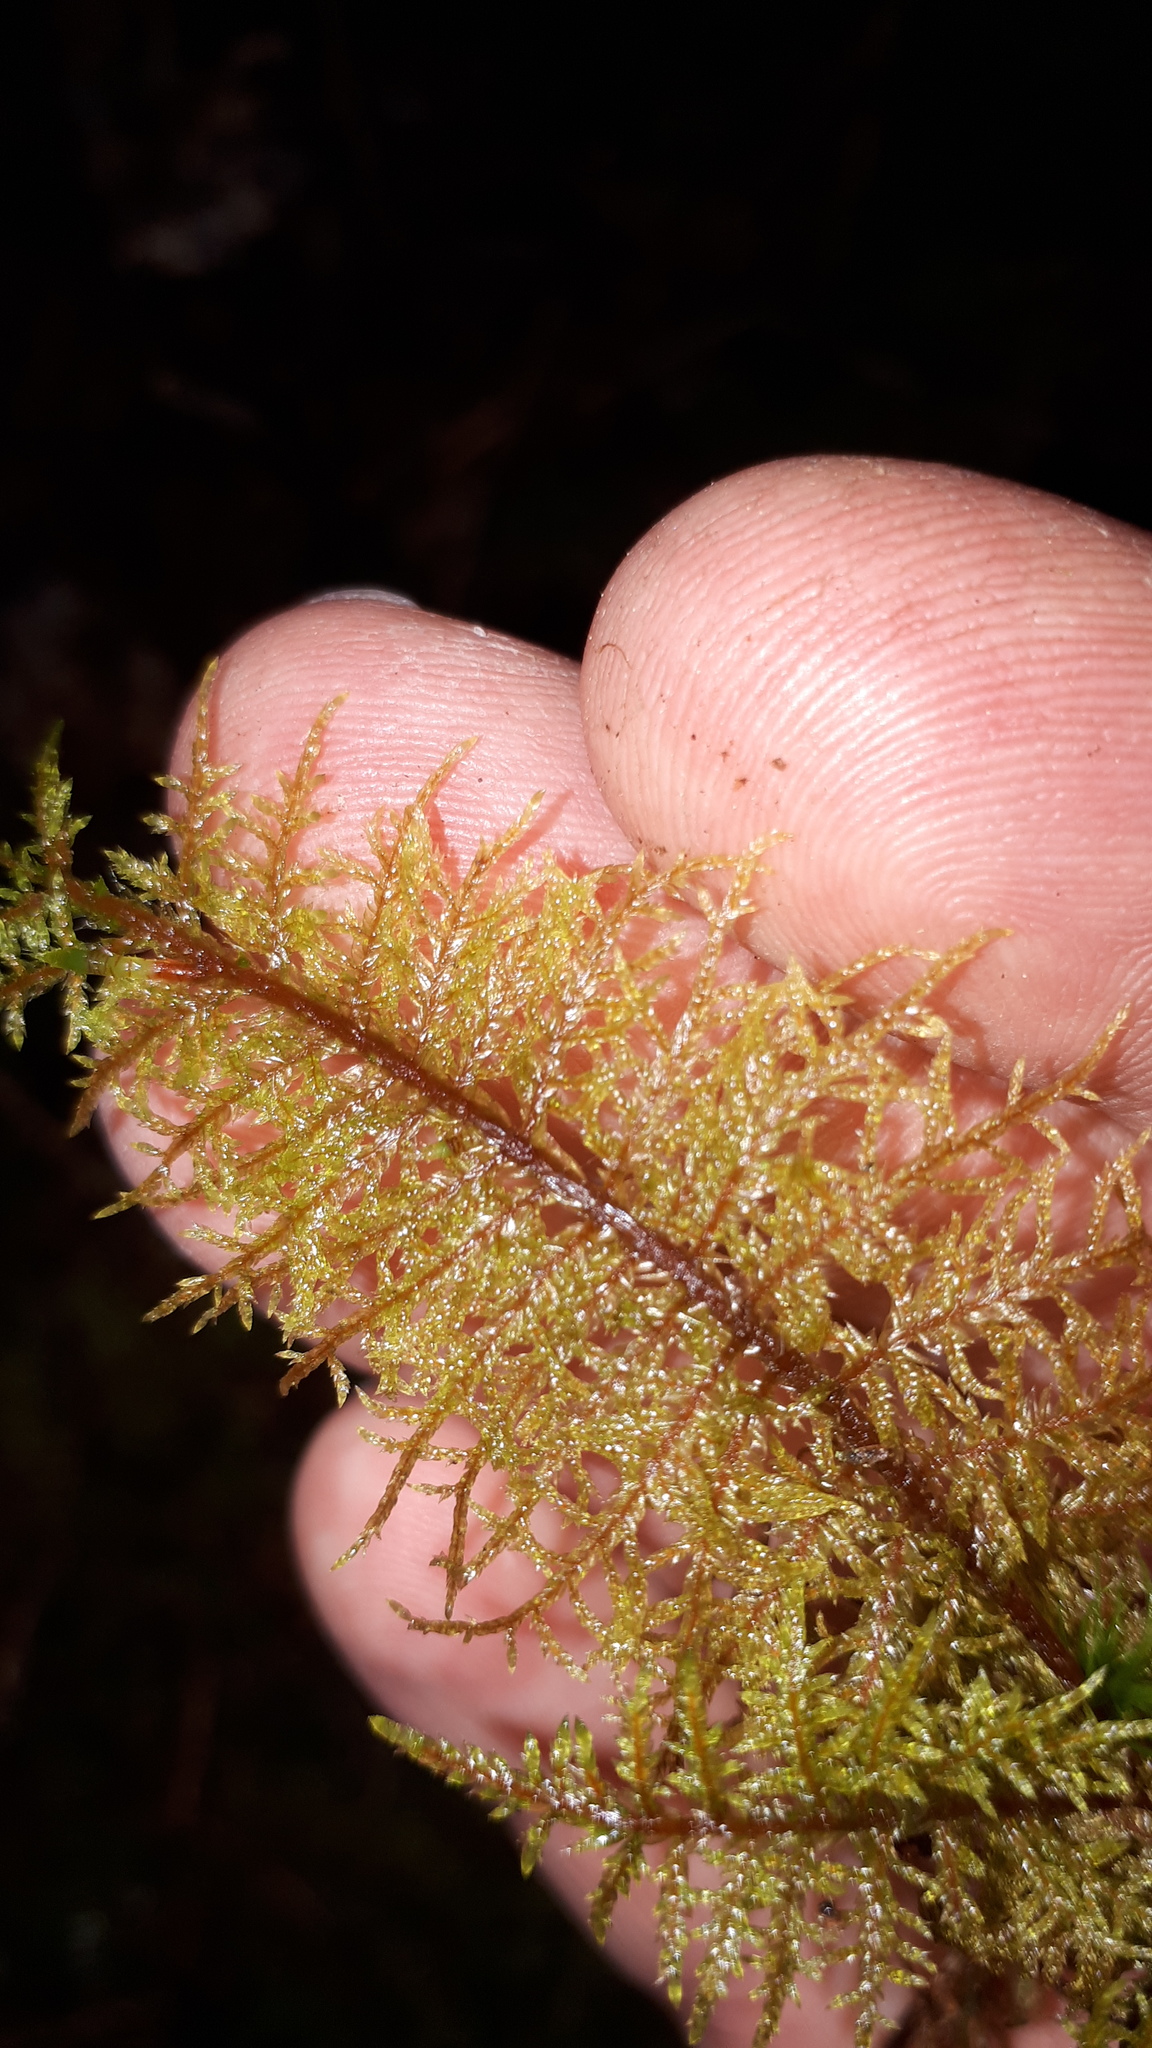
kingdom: Plantae
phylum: Bryophyta
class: Bryopsida
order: Hypnales
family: Hylocomiaceae
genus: Hylocomium
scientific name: Hylocomium splendens
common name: Stairstep moss
